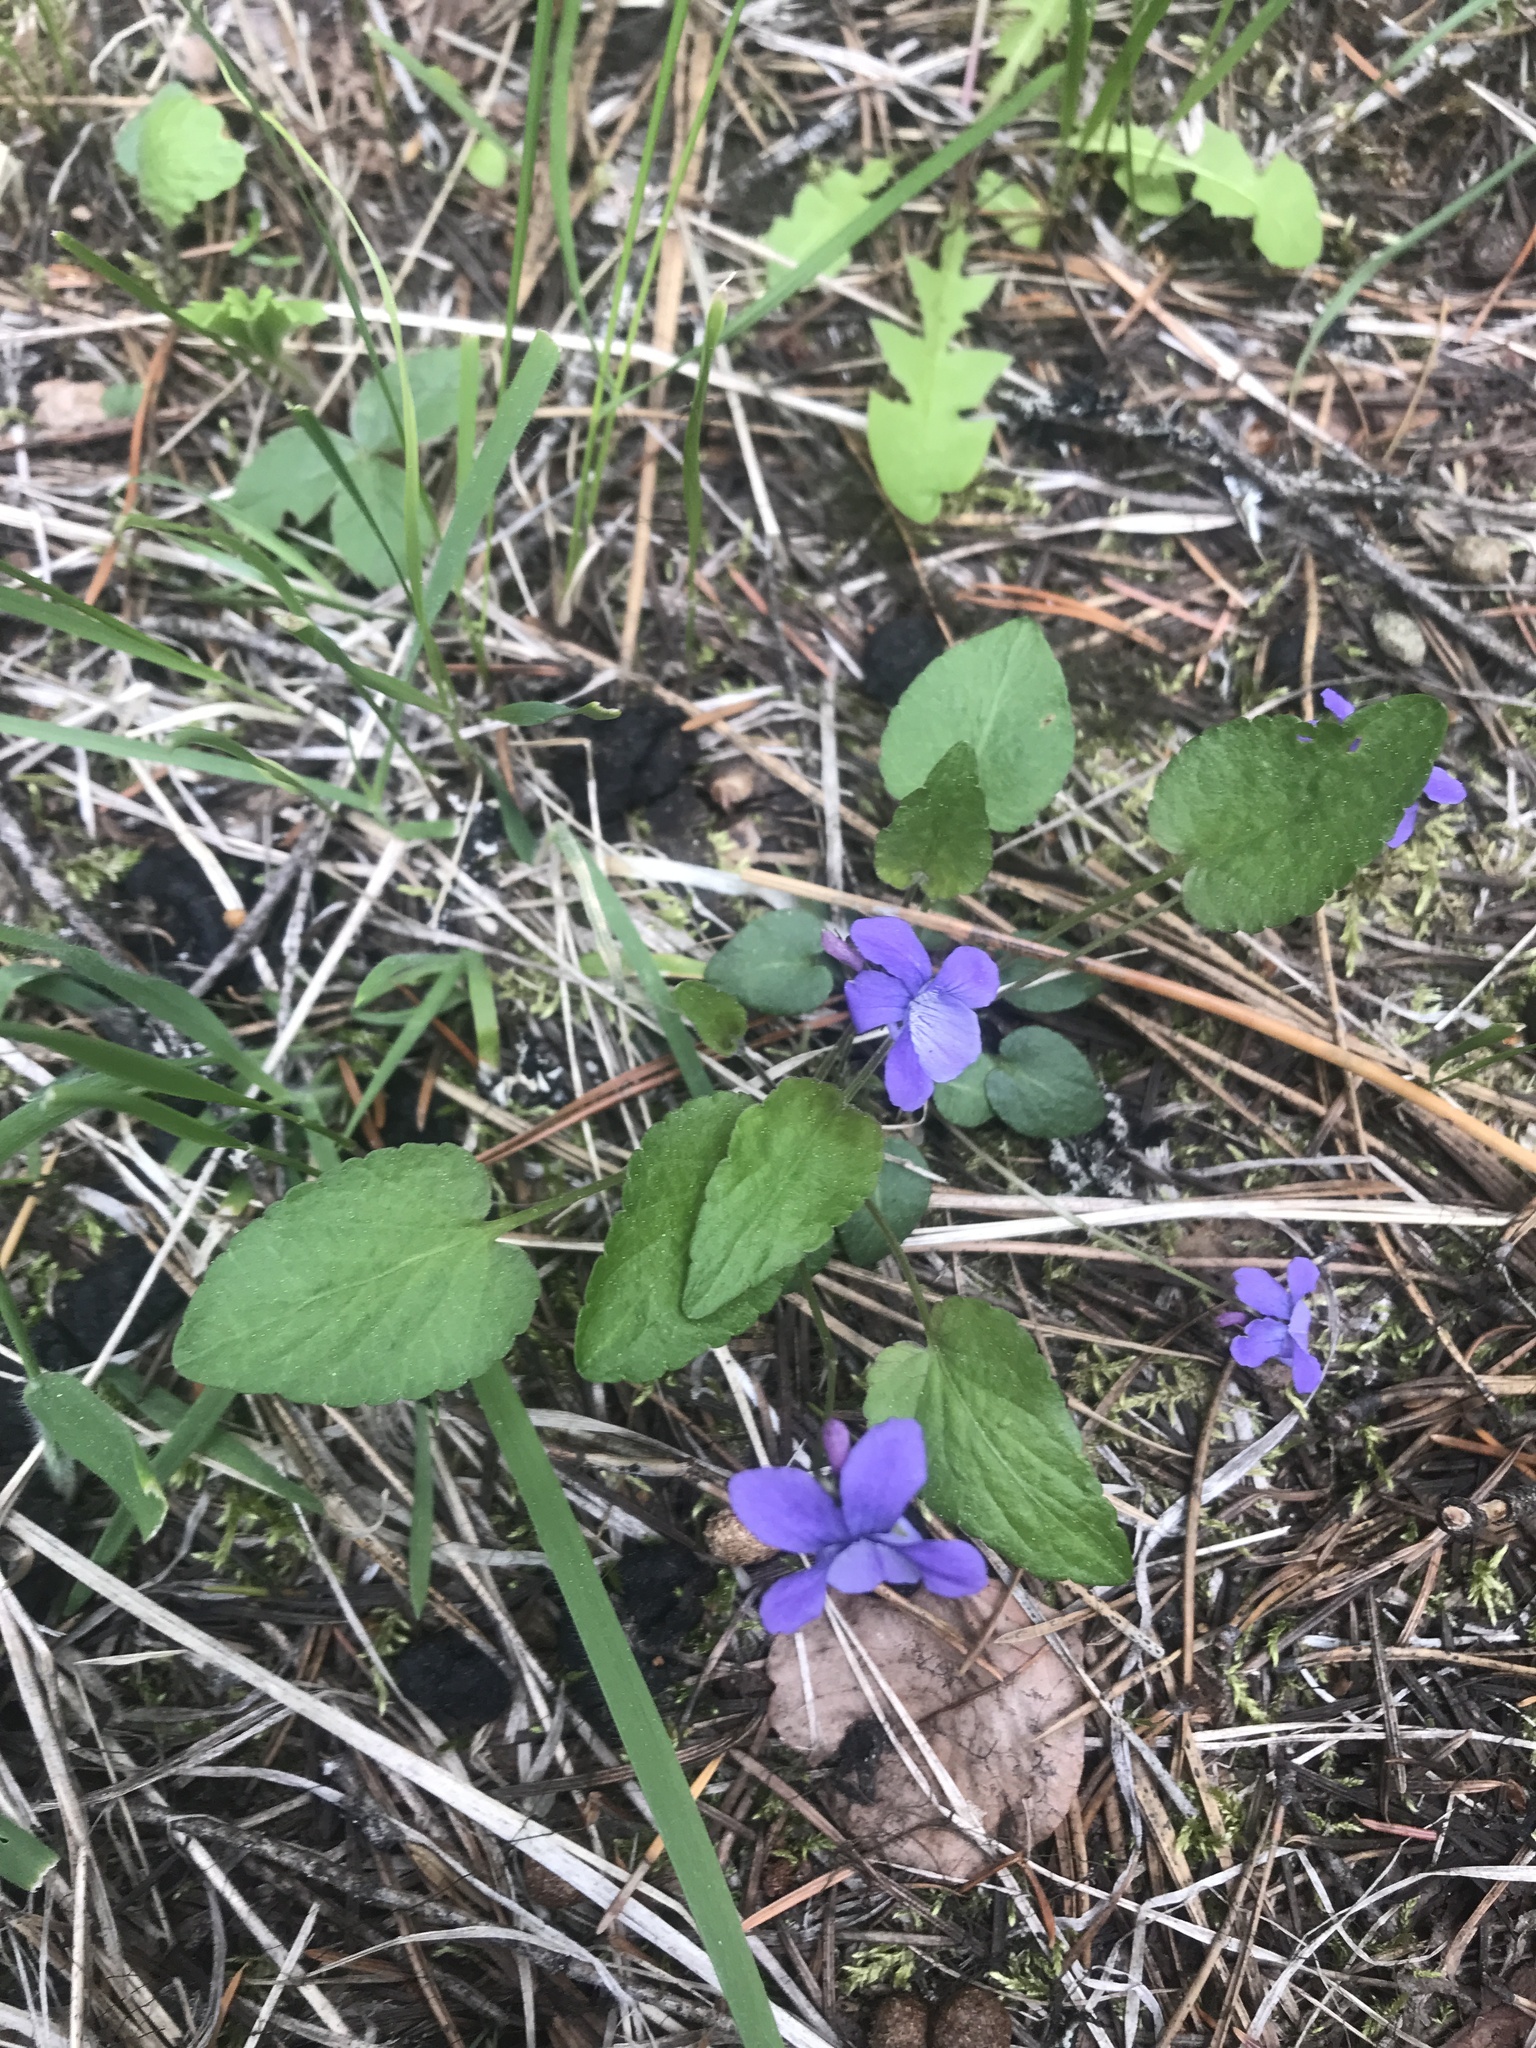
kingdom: Plantae
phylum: Tracheophyta
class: Magnoliopsida
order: Malpighiales
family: Violaceae
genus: Viola
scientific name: Viola adunca
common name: Sand violet
